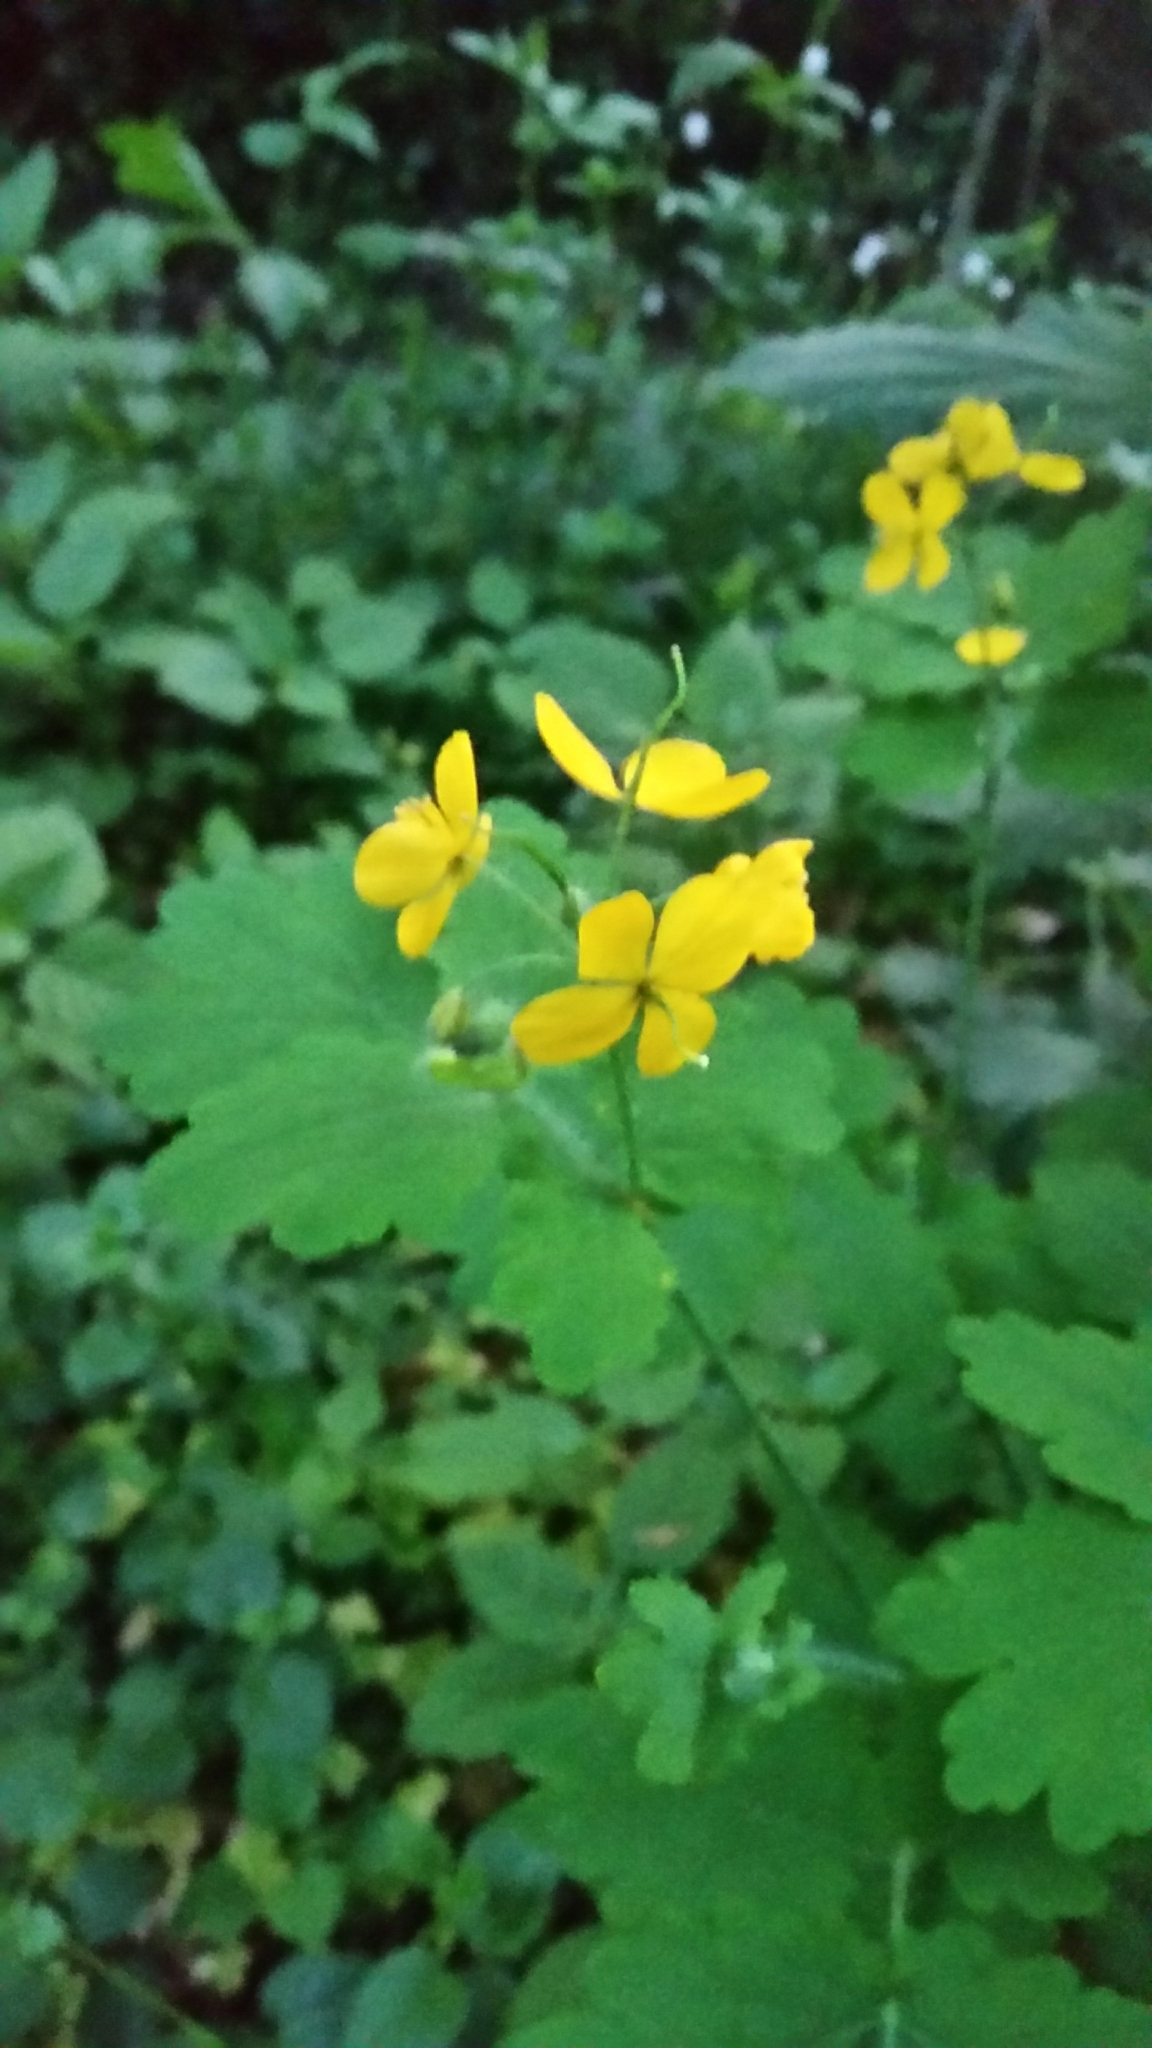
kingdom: Plantae
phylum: Tracheophyta
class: Magnoliopsida
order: Ranunculales
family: Papaveraceae
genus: Chelidonium
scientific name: Chelidonium majus
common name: Greater celandine
